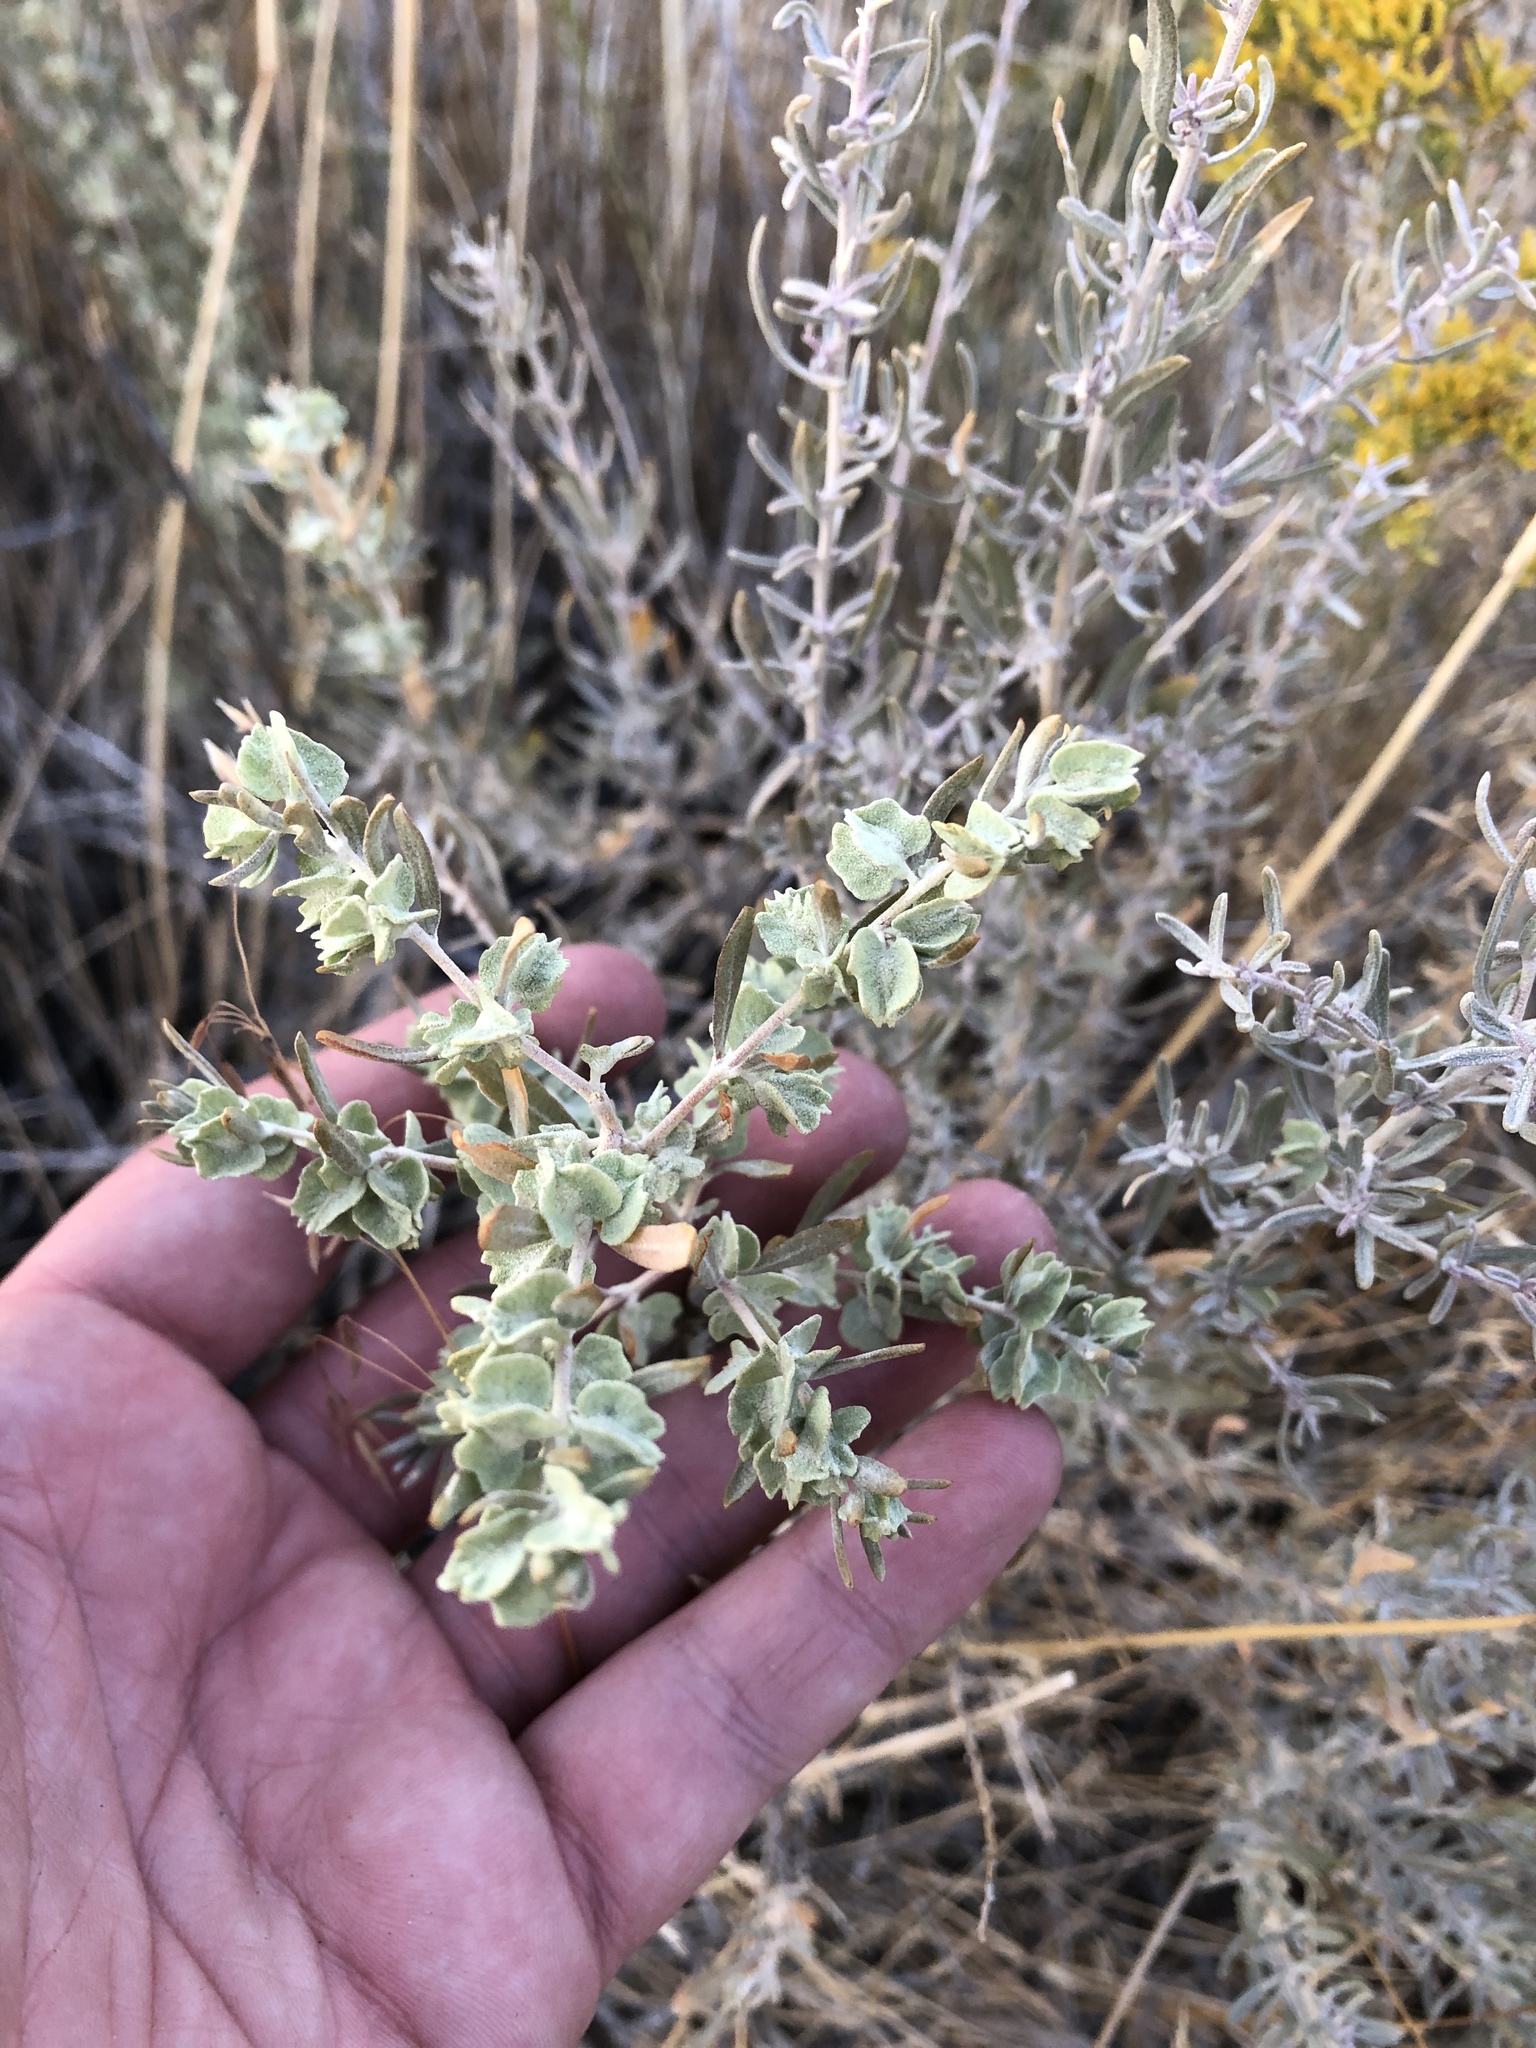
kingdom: Plantae
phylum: Tracheophyta
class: Magnoliopsida
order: Caryophyllales
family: Amaranthaceae
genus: Atriplex
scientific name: Atriplex confertifolia
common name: Shadscale
